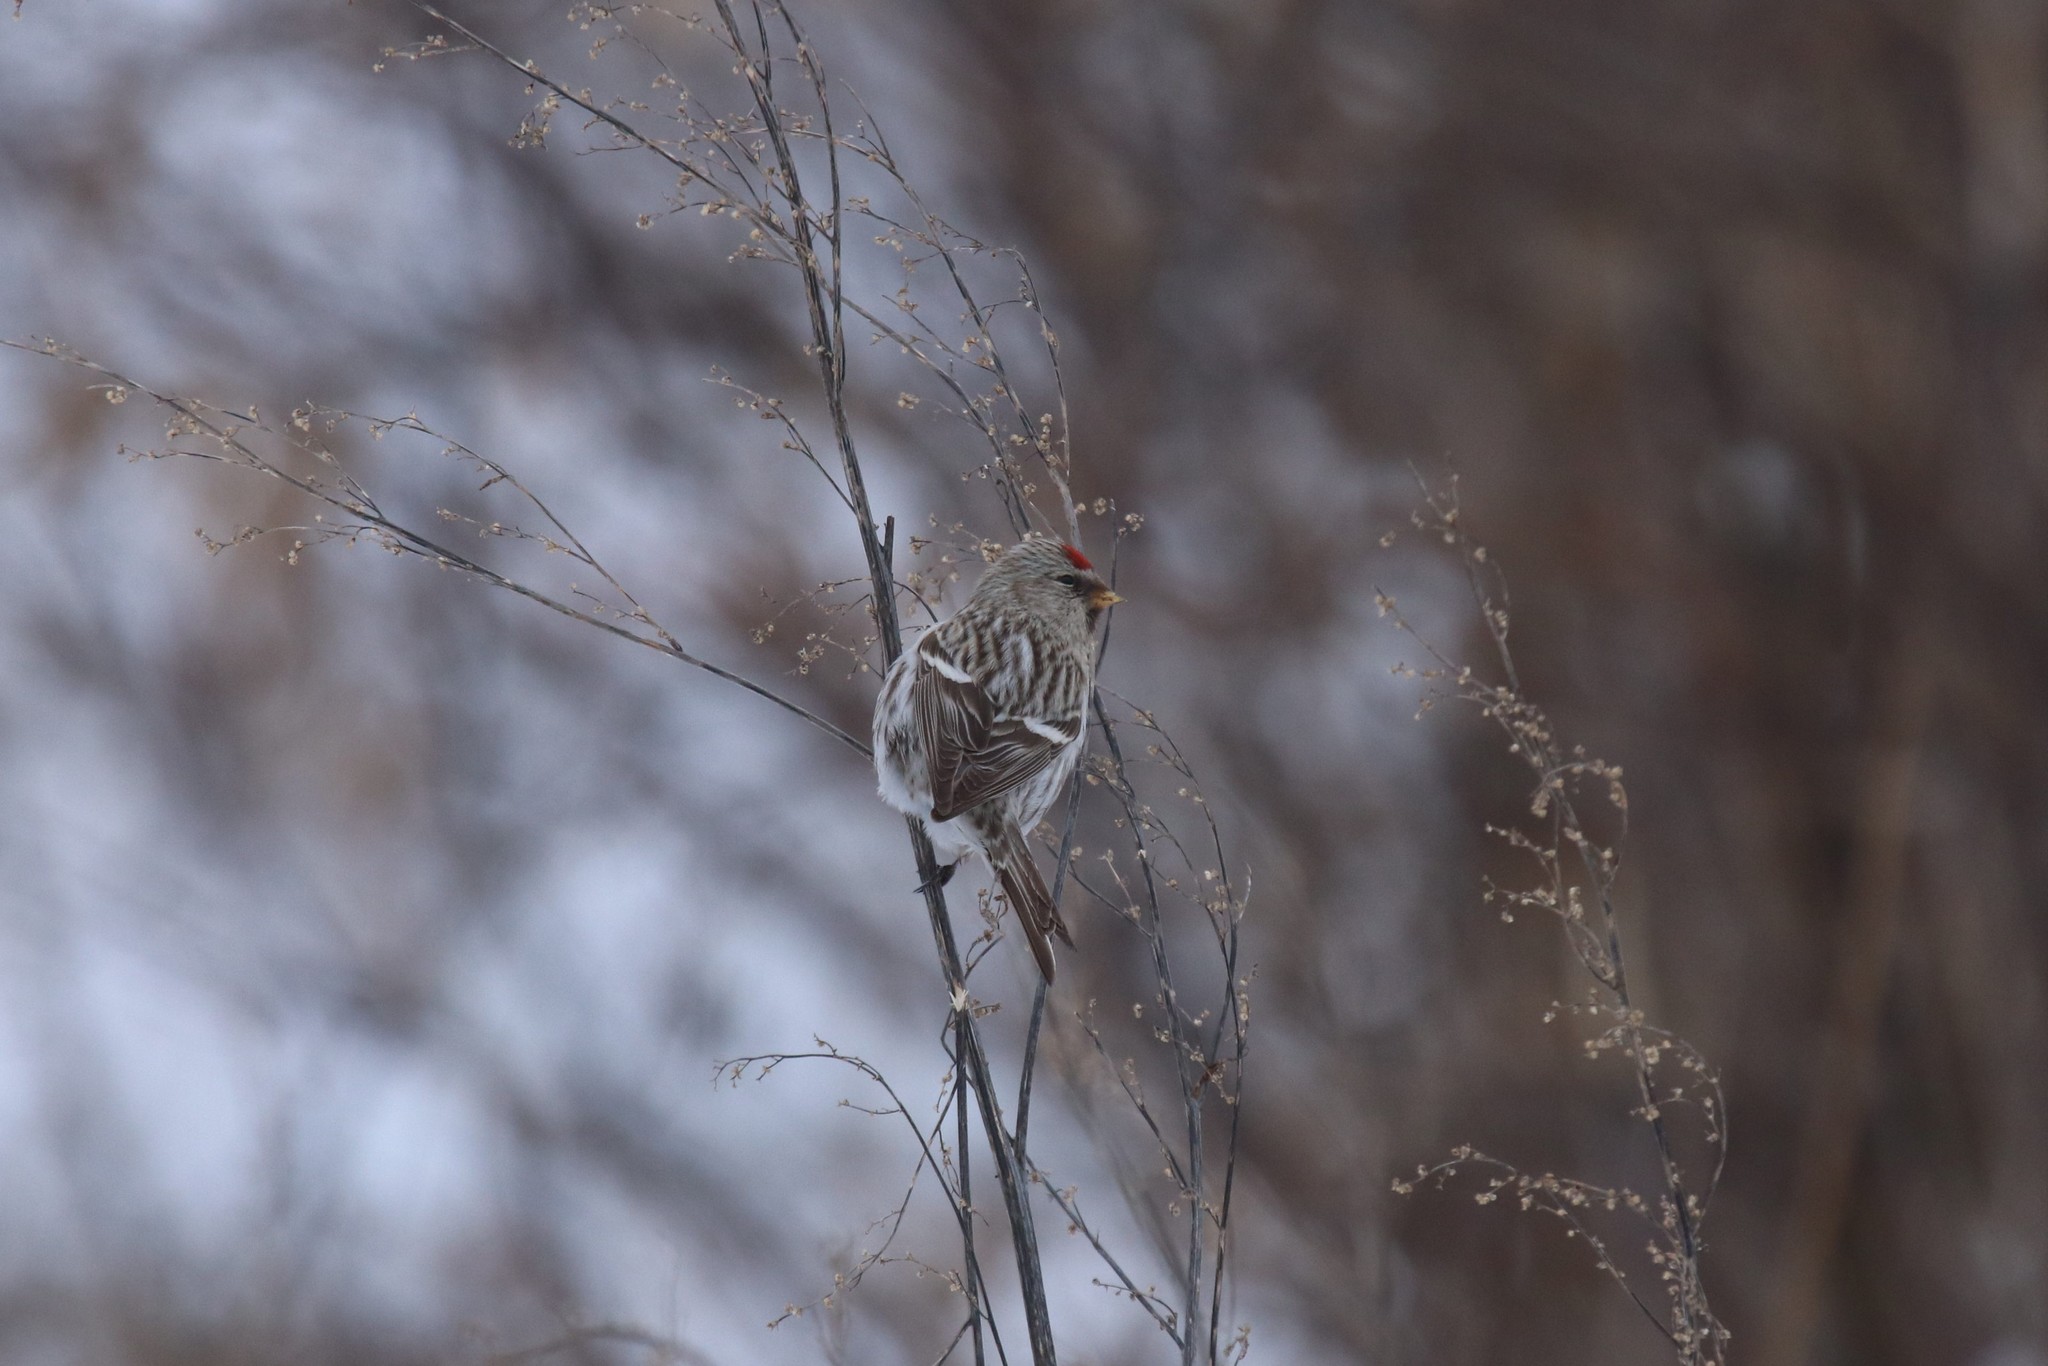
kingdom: Animalia
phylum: Chordata
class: Aves
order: Passeriformes
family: Fringillidae
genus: Acanthis
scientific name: Acanthis flammea
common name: Common redpoll
